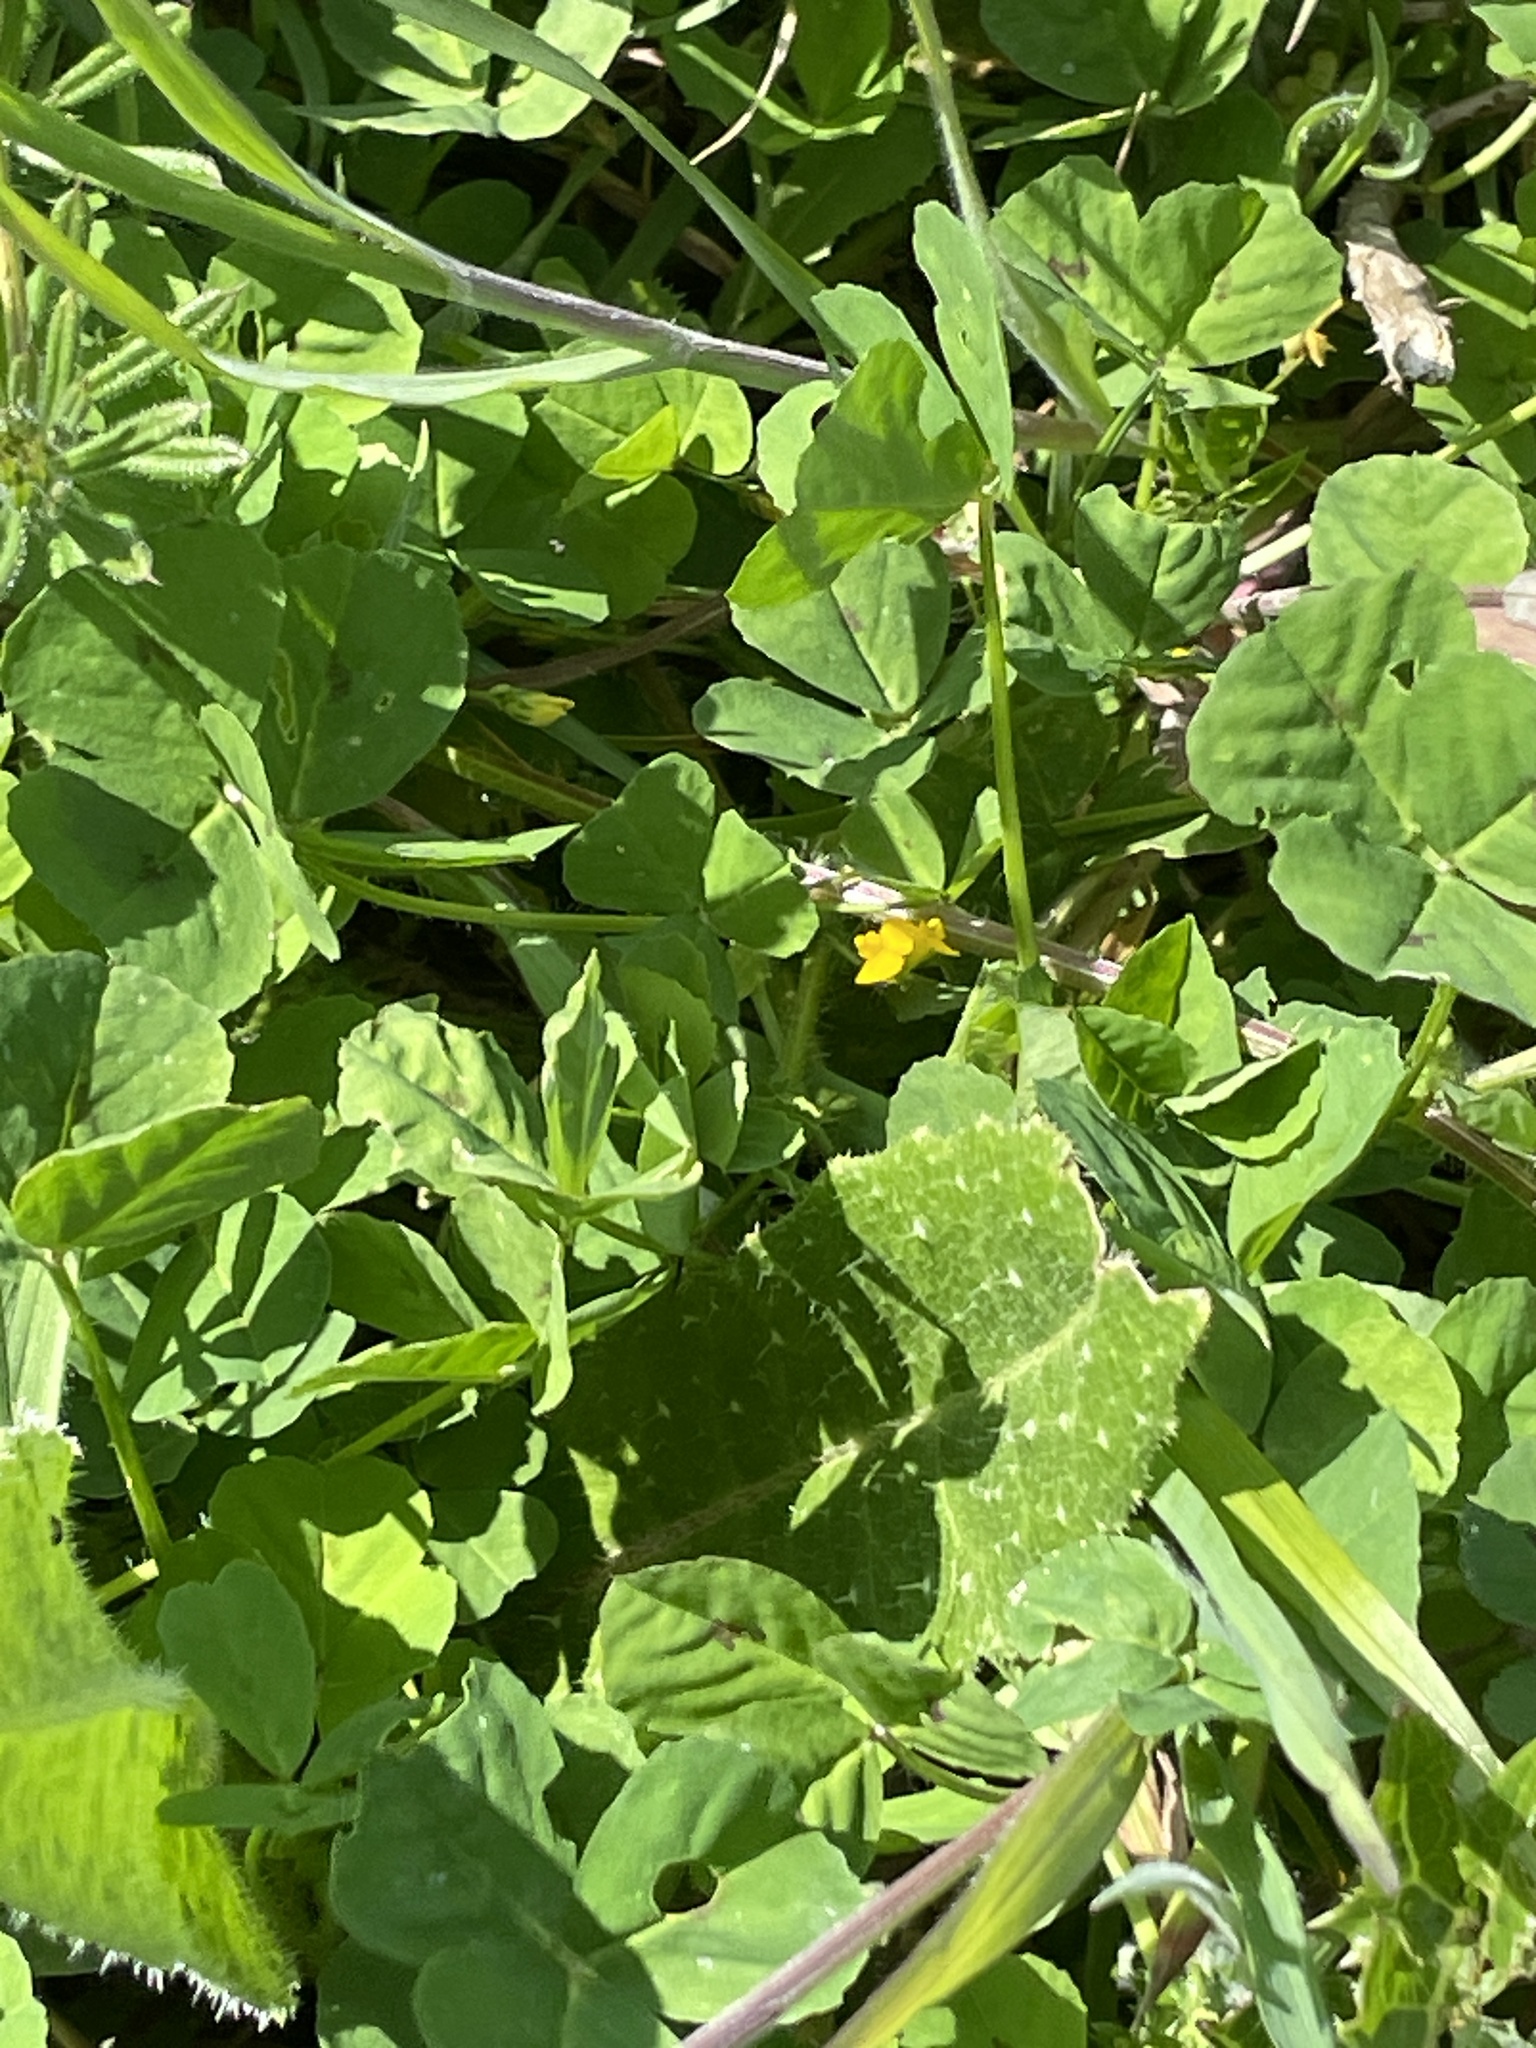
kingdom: Plantae
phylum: Tracheophyta
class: Magnoliopsida
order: Fabales
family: Fabaceae
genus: Medicago
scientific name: Medicago arabica
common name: Spotted medick
